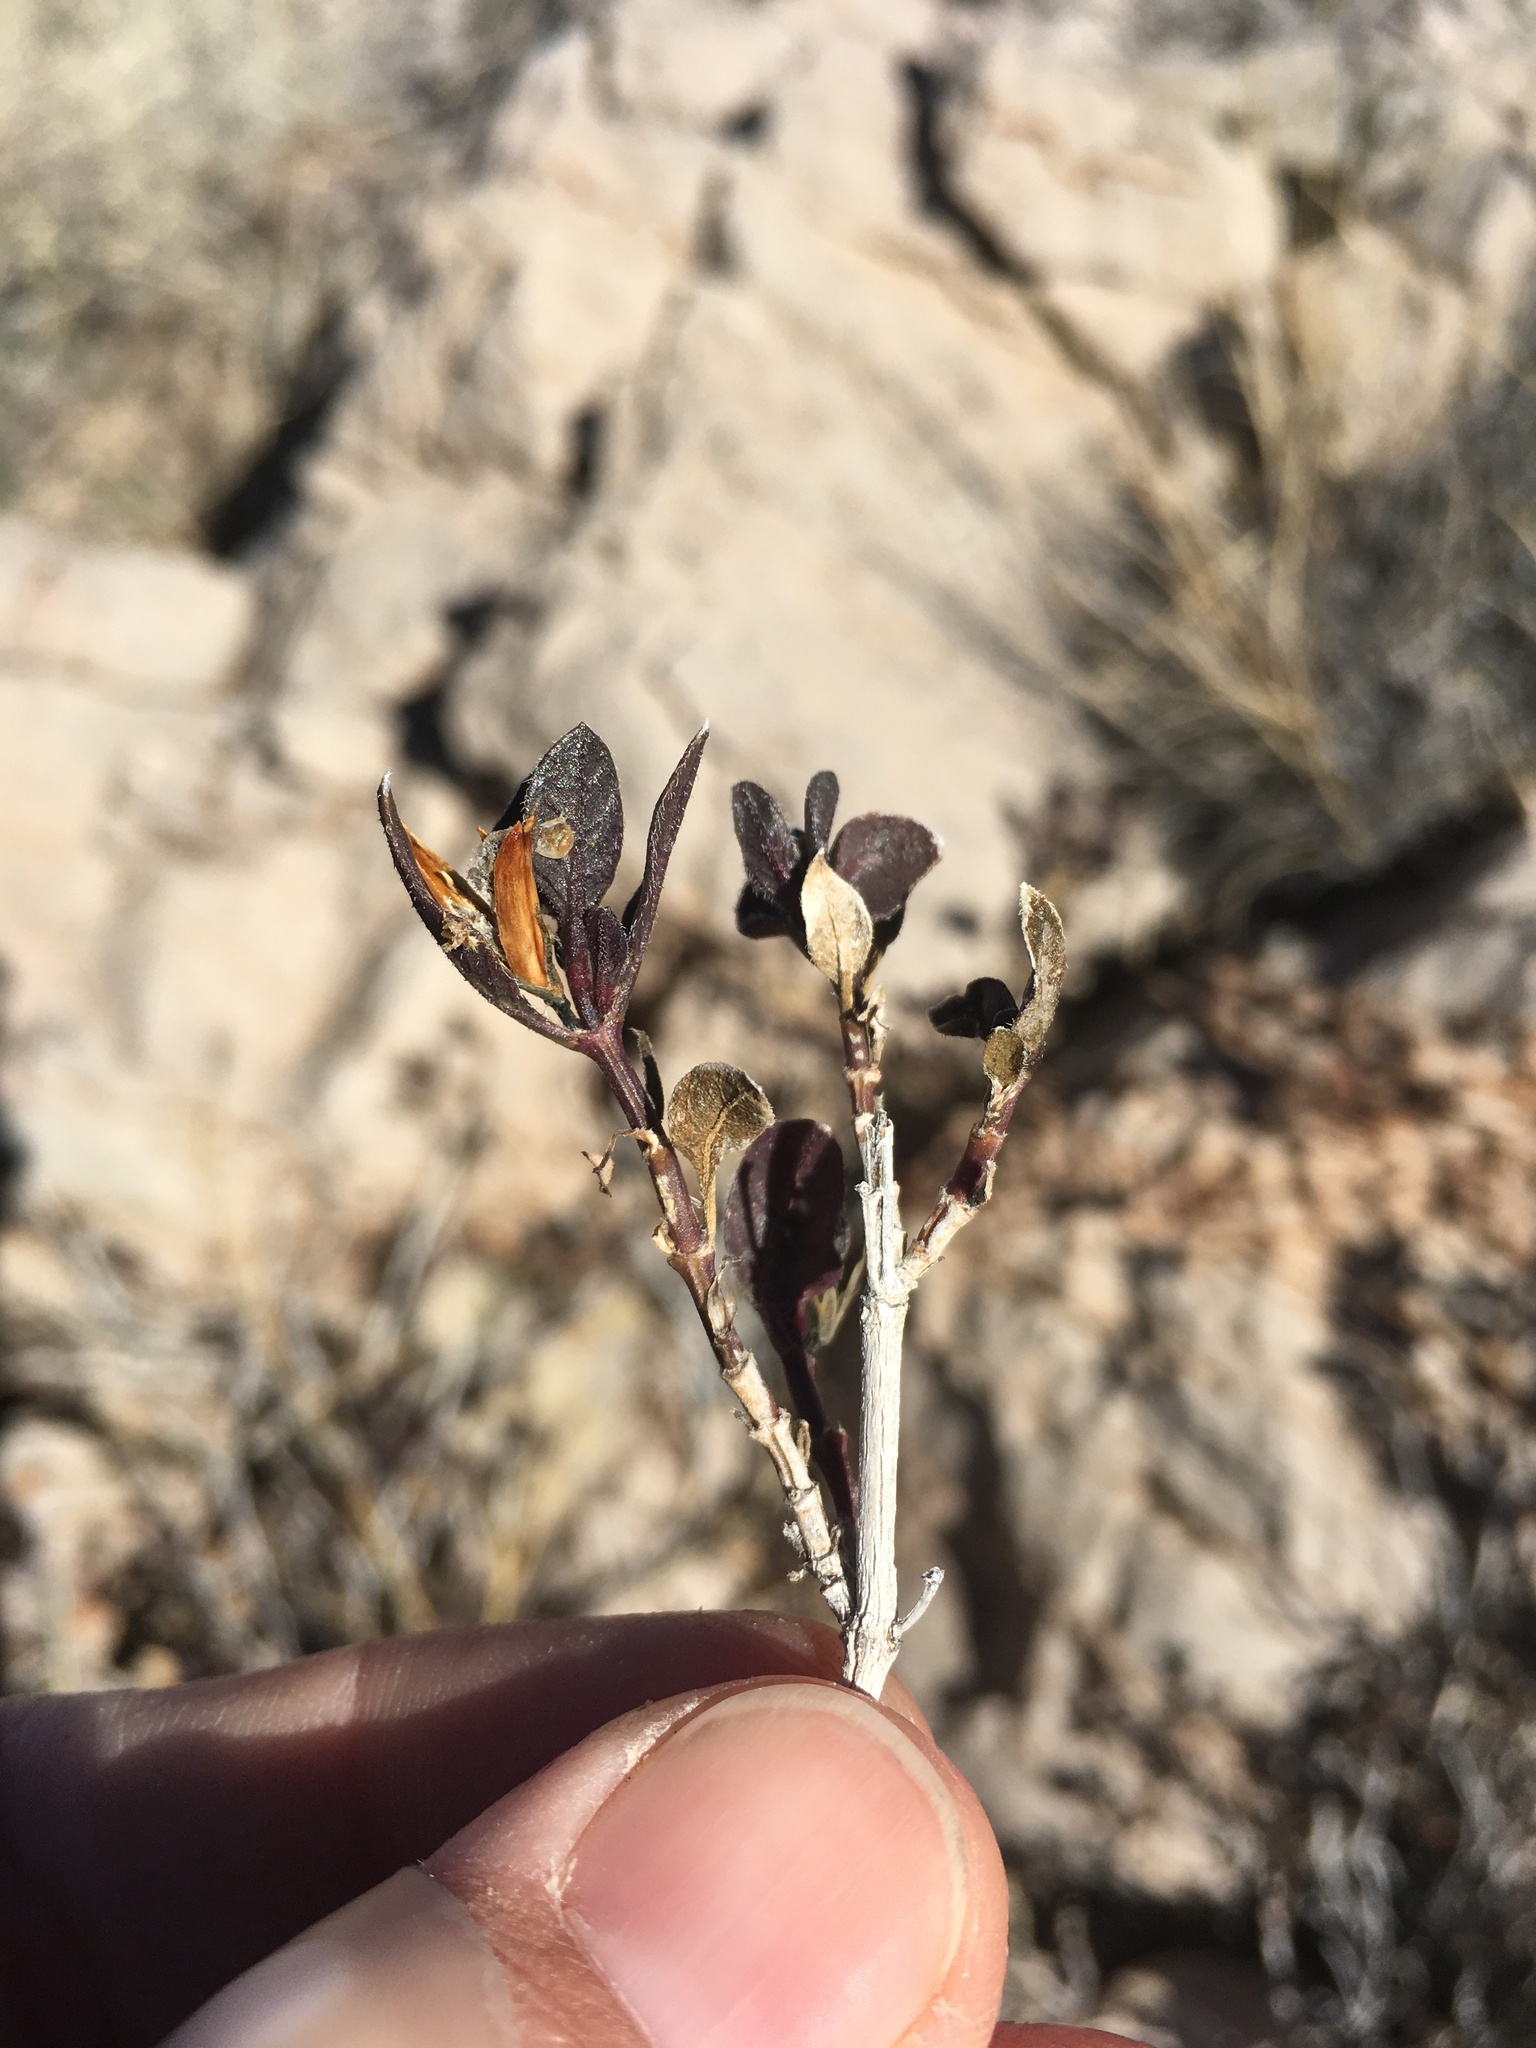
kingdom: Plantae
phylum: Tracheophyta
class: Magnoliopsida
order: Lamiales
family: Acanthaceae
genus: Ruellia
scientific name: Ruellia parryi
